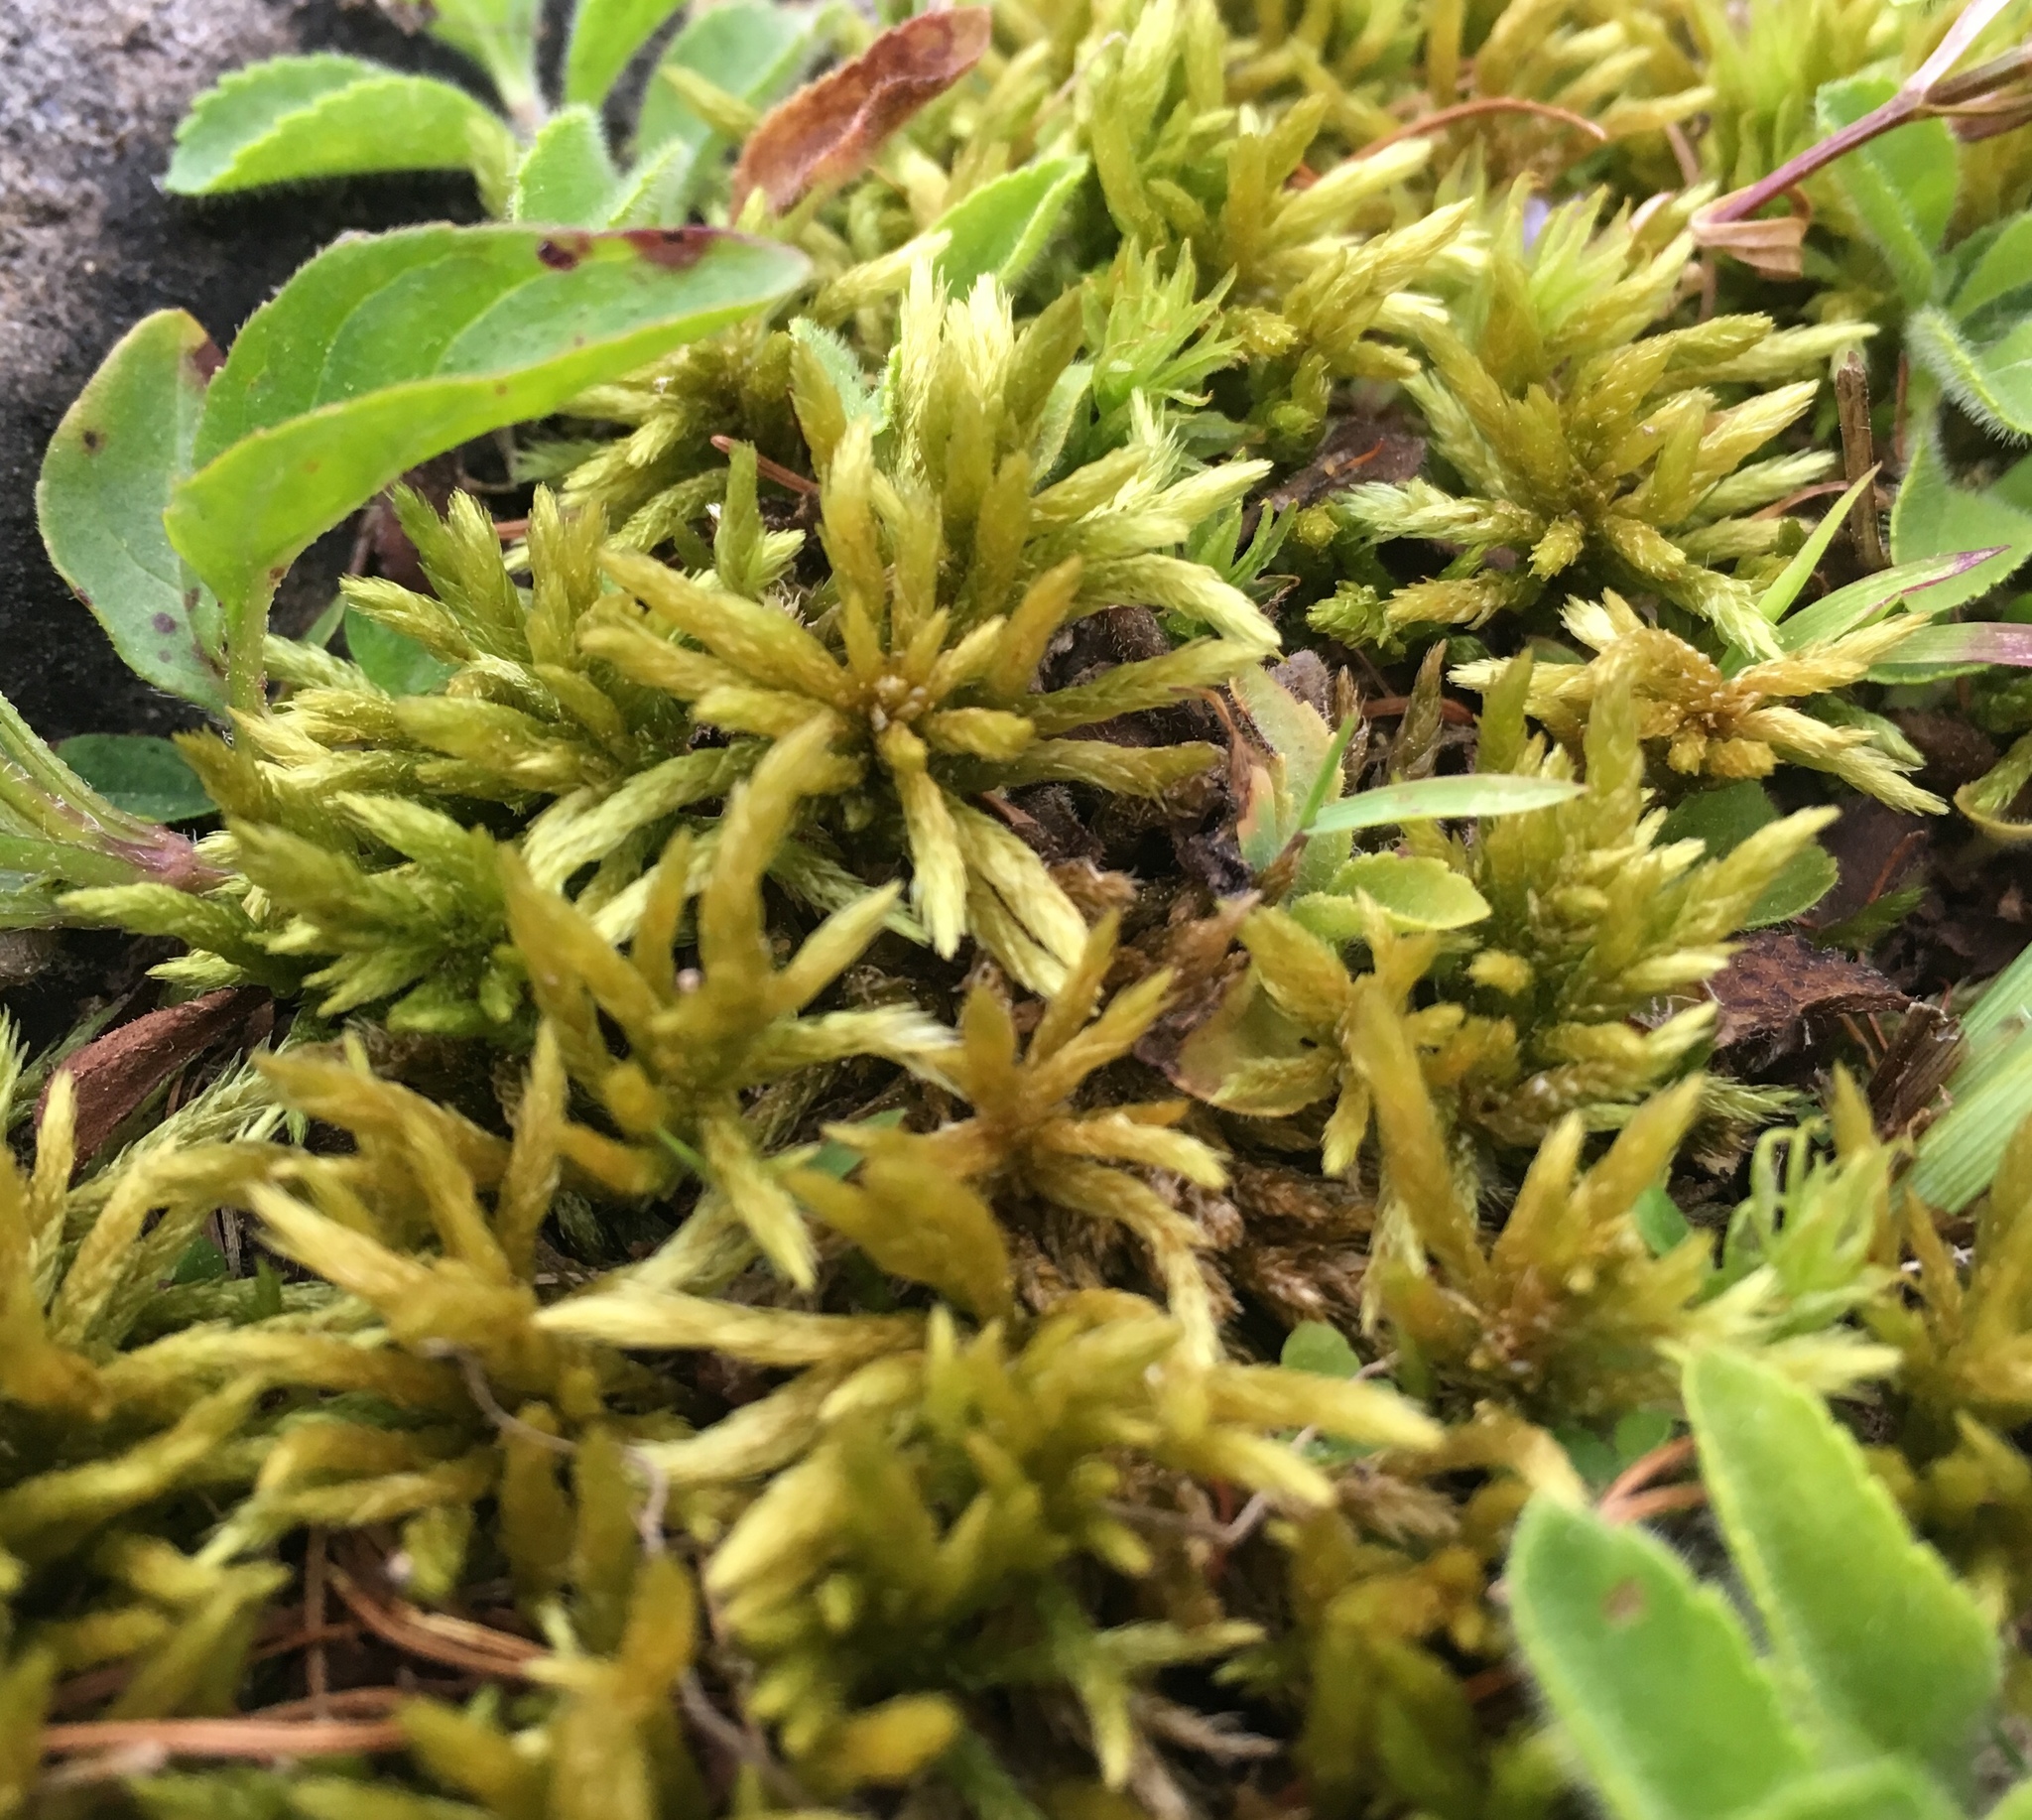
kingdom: Plantae
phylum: Bryophyta
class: Bryopsida
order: Hypnales
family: Climaciaceae
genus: Climacium
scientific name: Climacium
